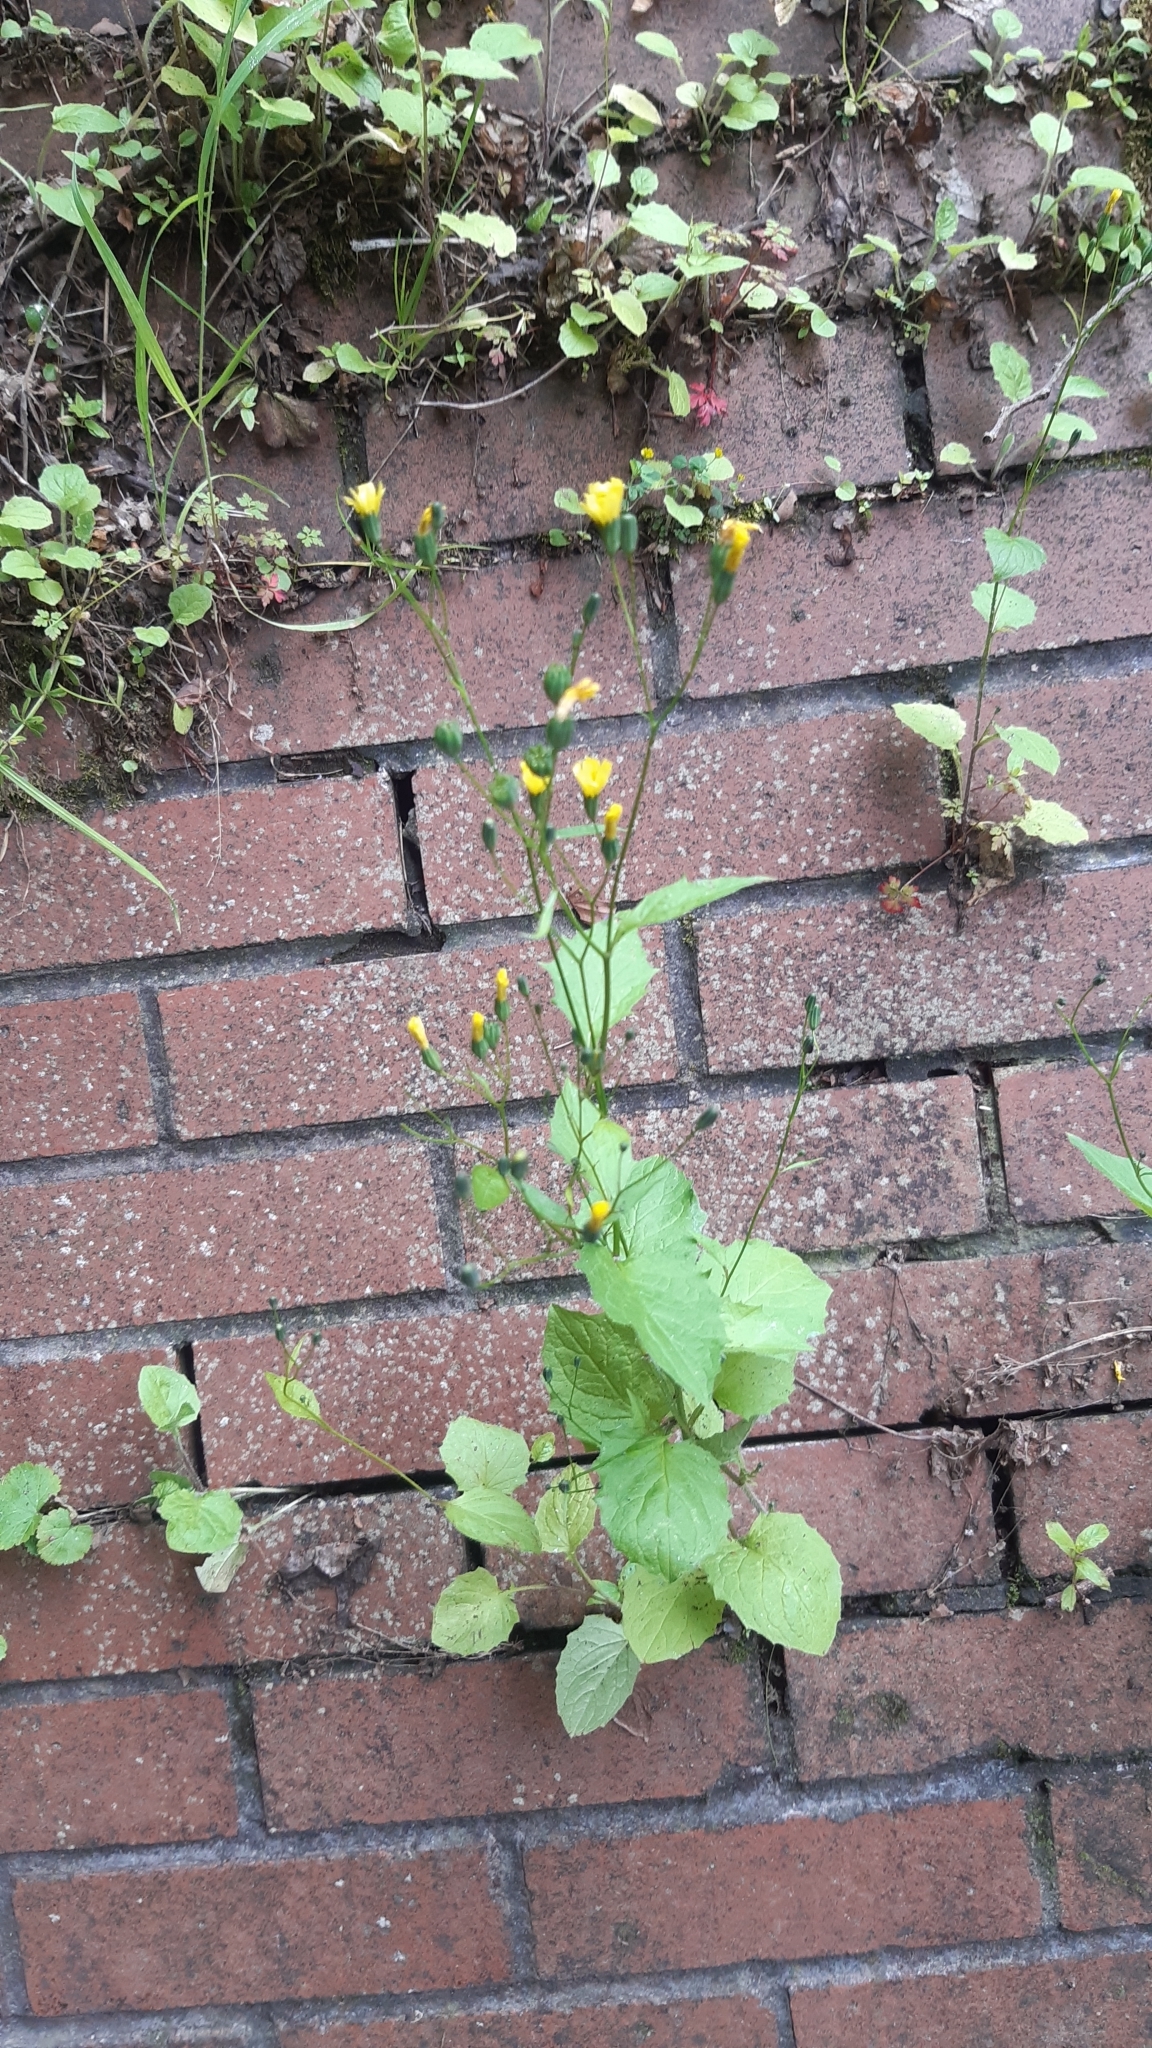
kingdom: Plantae
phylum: Tracheophyta
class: Magnoliopsida
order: Asterales
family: Asteraceae
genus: Lapsana
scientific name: Lapsana communis
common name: Nipplewort
